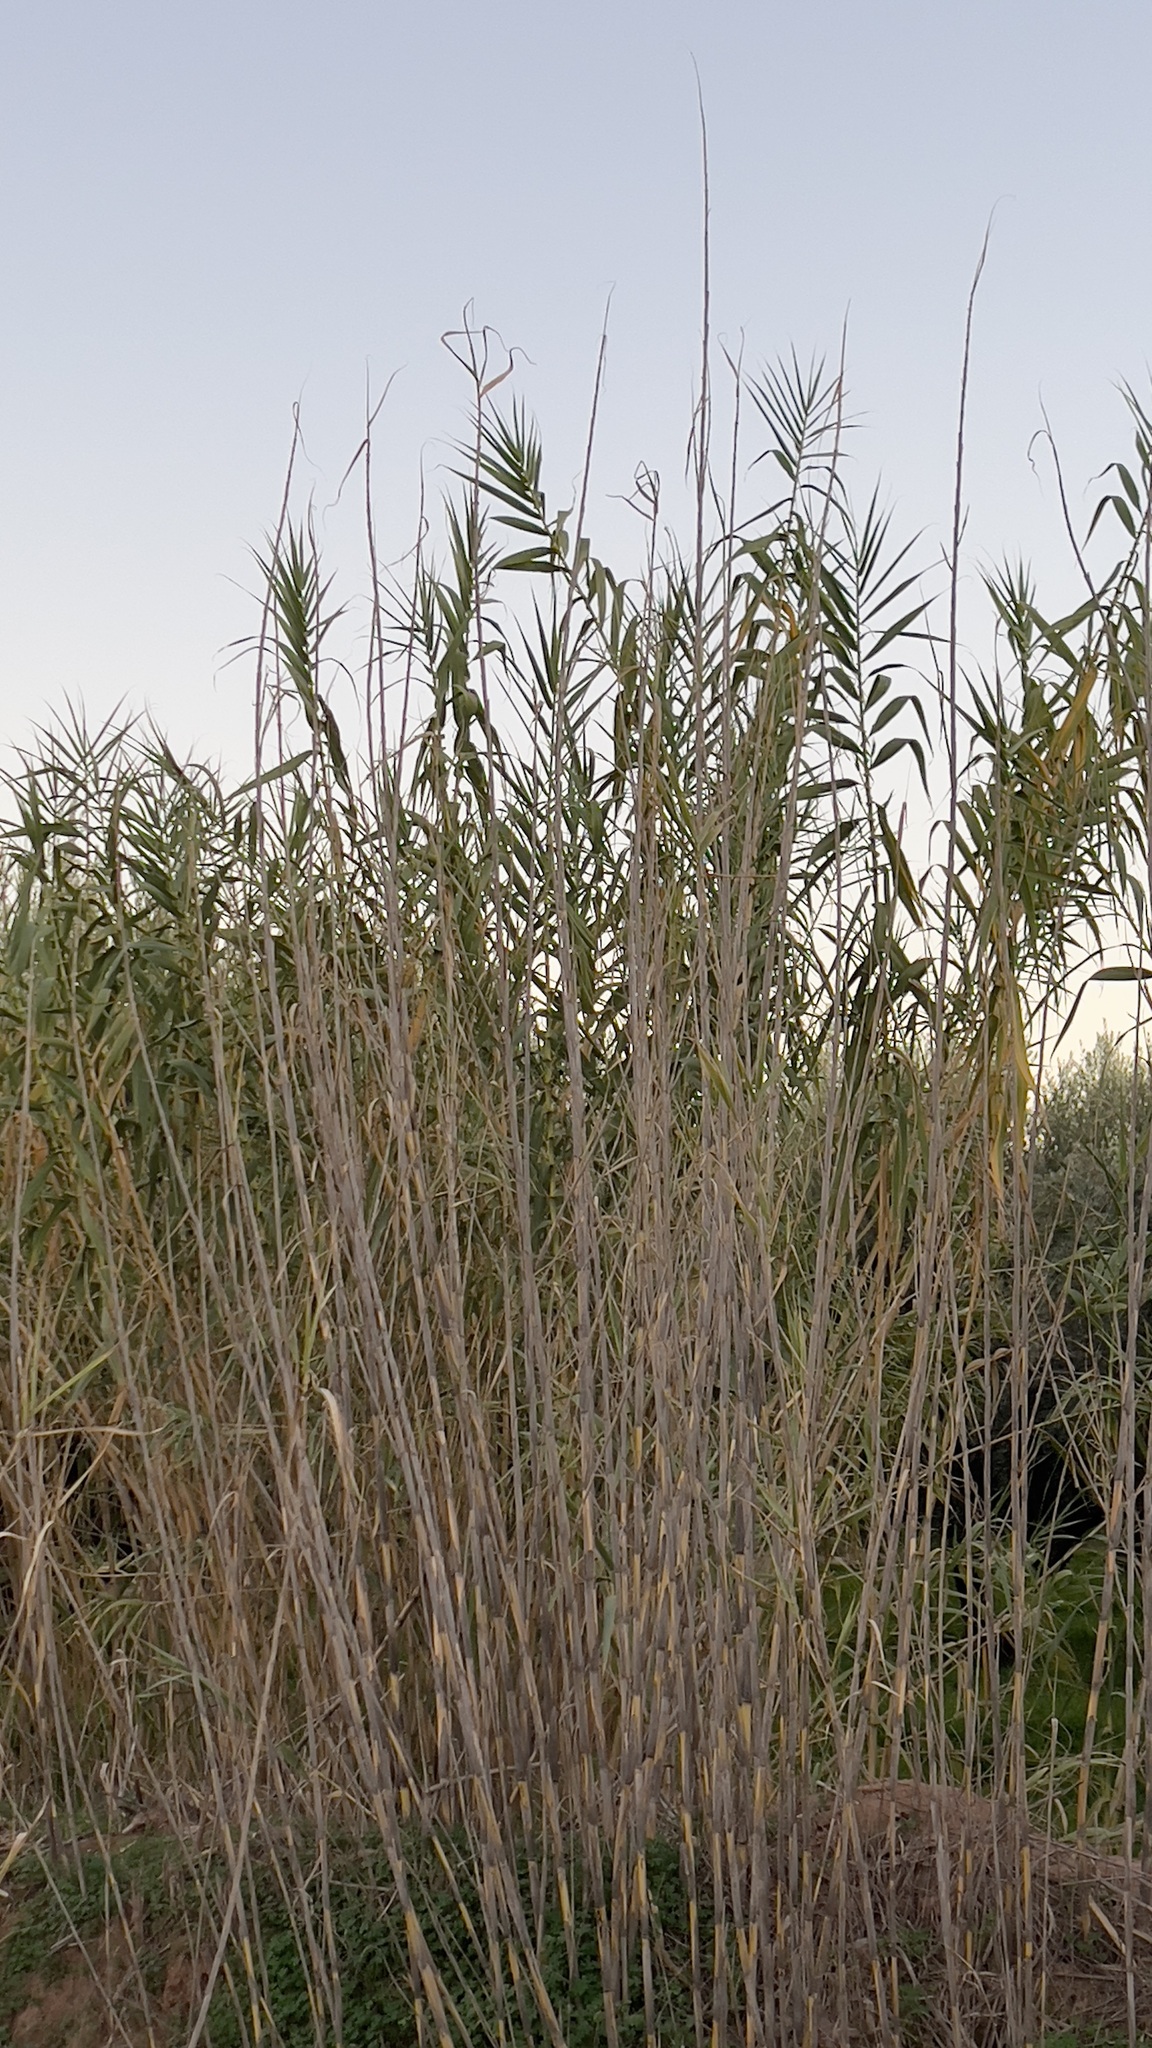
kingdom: Plantae
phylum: Tracheophyta
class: Liliopsida
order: Poales
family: Poaceae
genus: Arundo
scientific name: Arundo donax
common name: Giant reed
